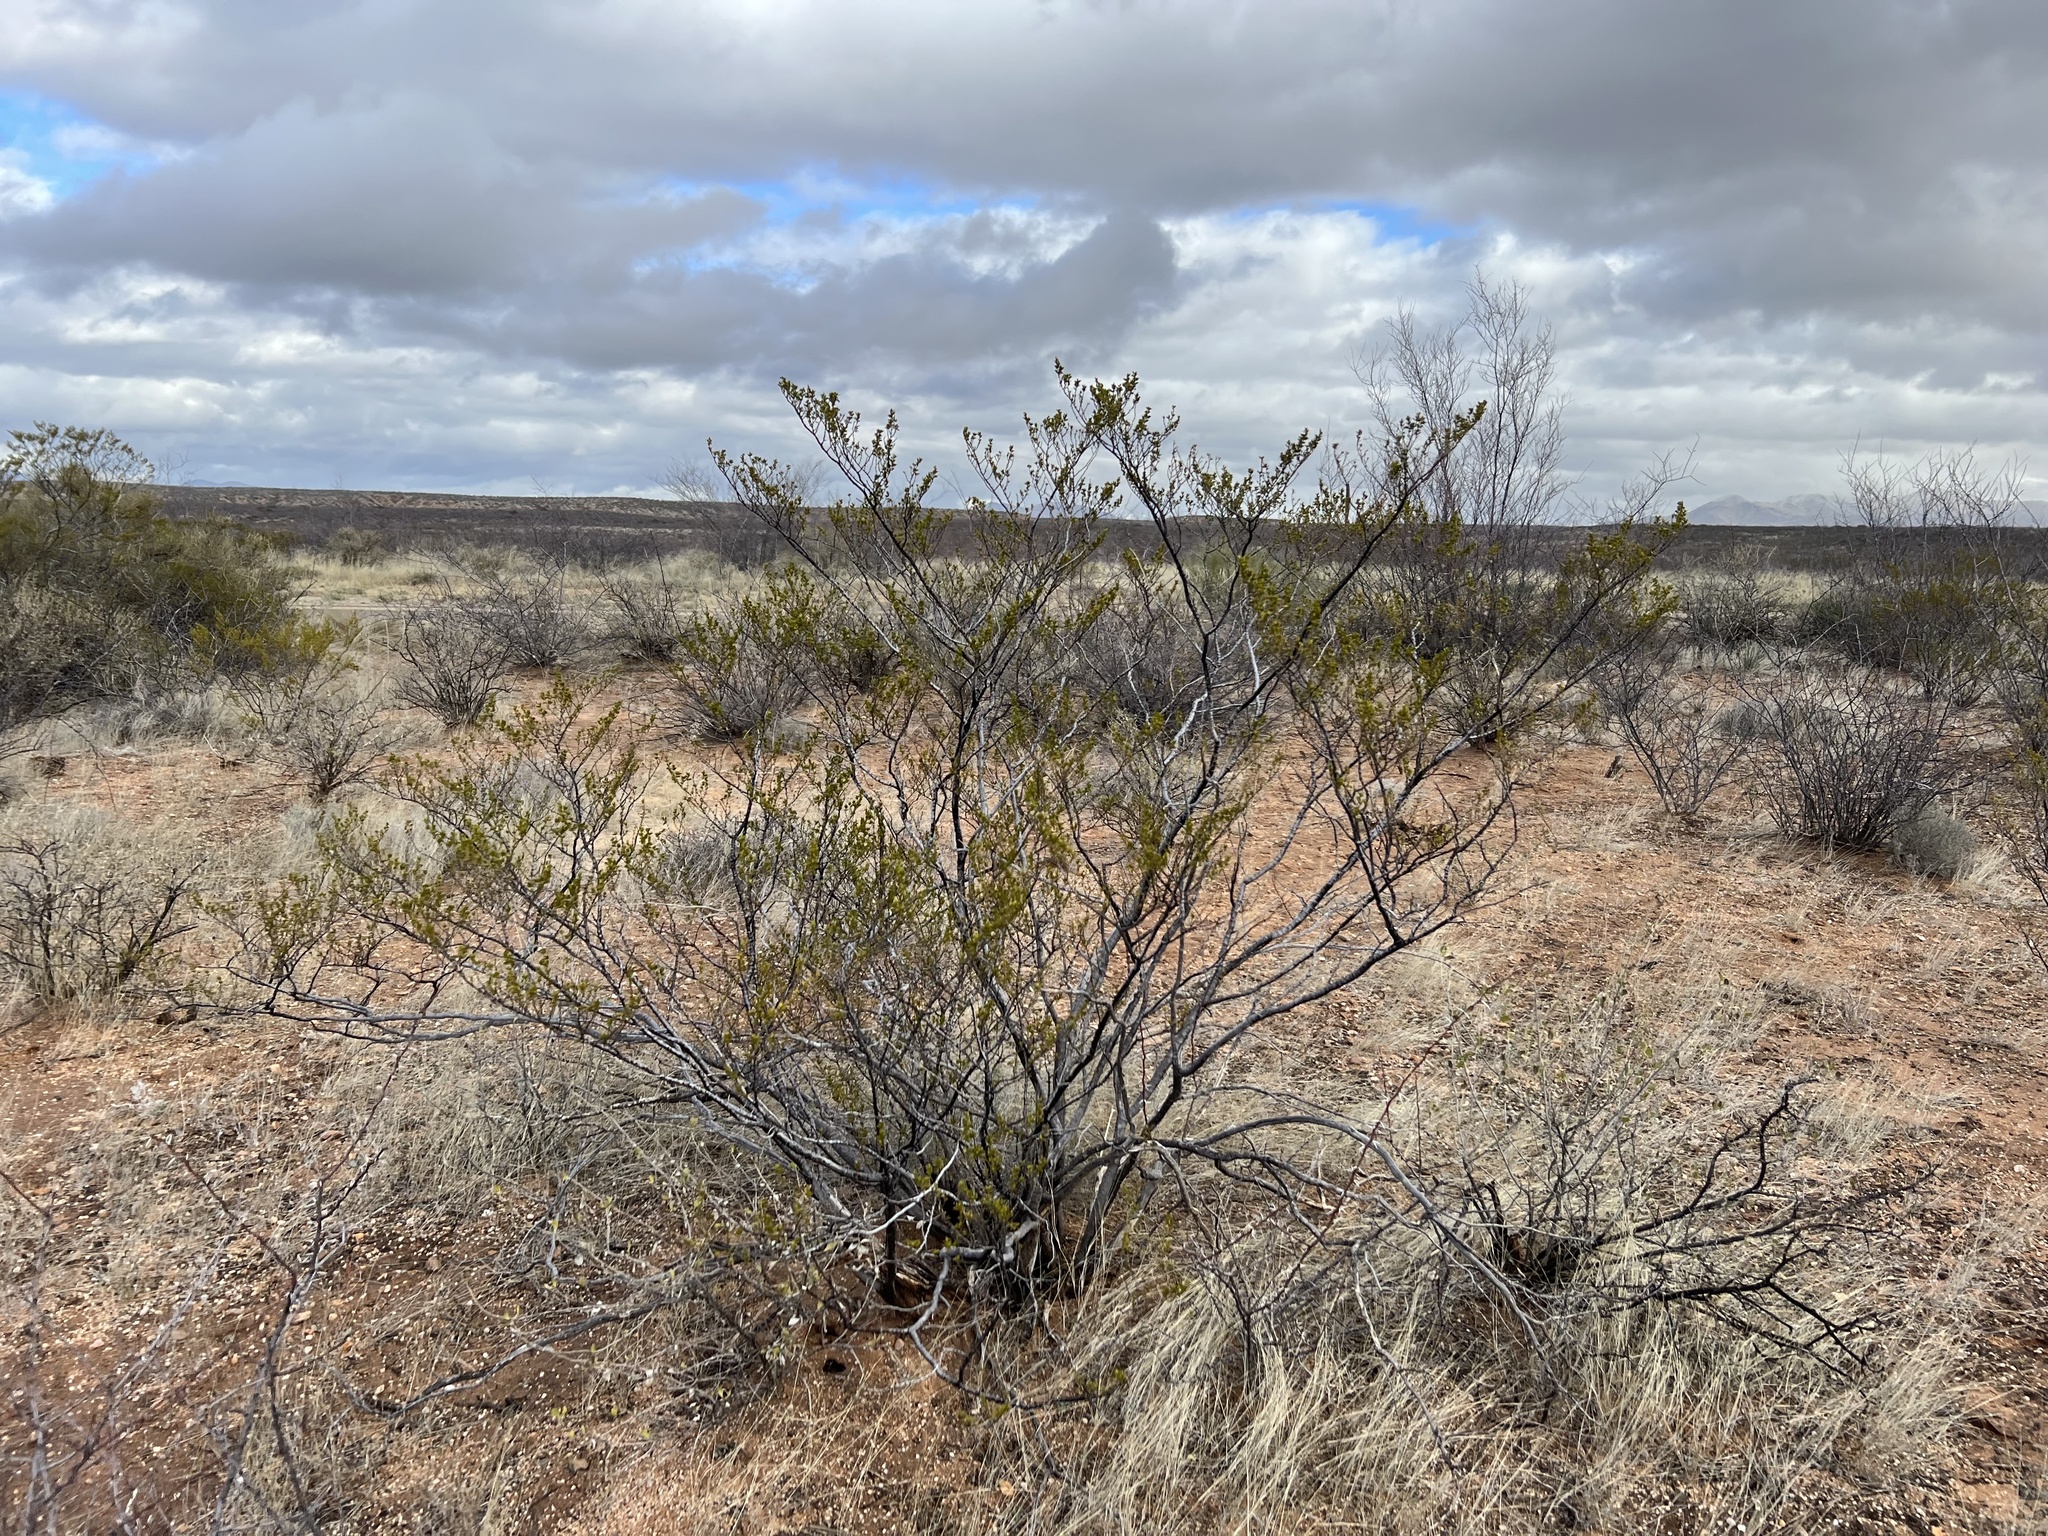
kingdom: Plantae
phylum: Tracheophyta
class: Magnoliopsida
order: Zygophyllales
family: Zygophyllaceae
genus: Larrea
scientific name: Larrea tridentata
